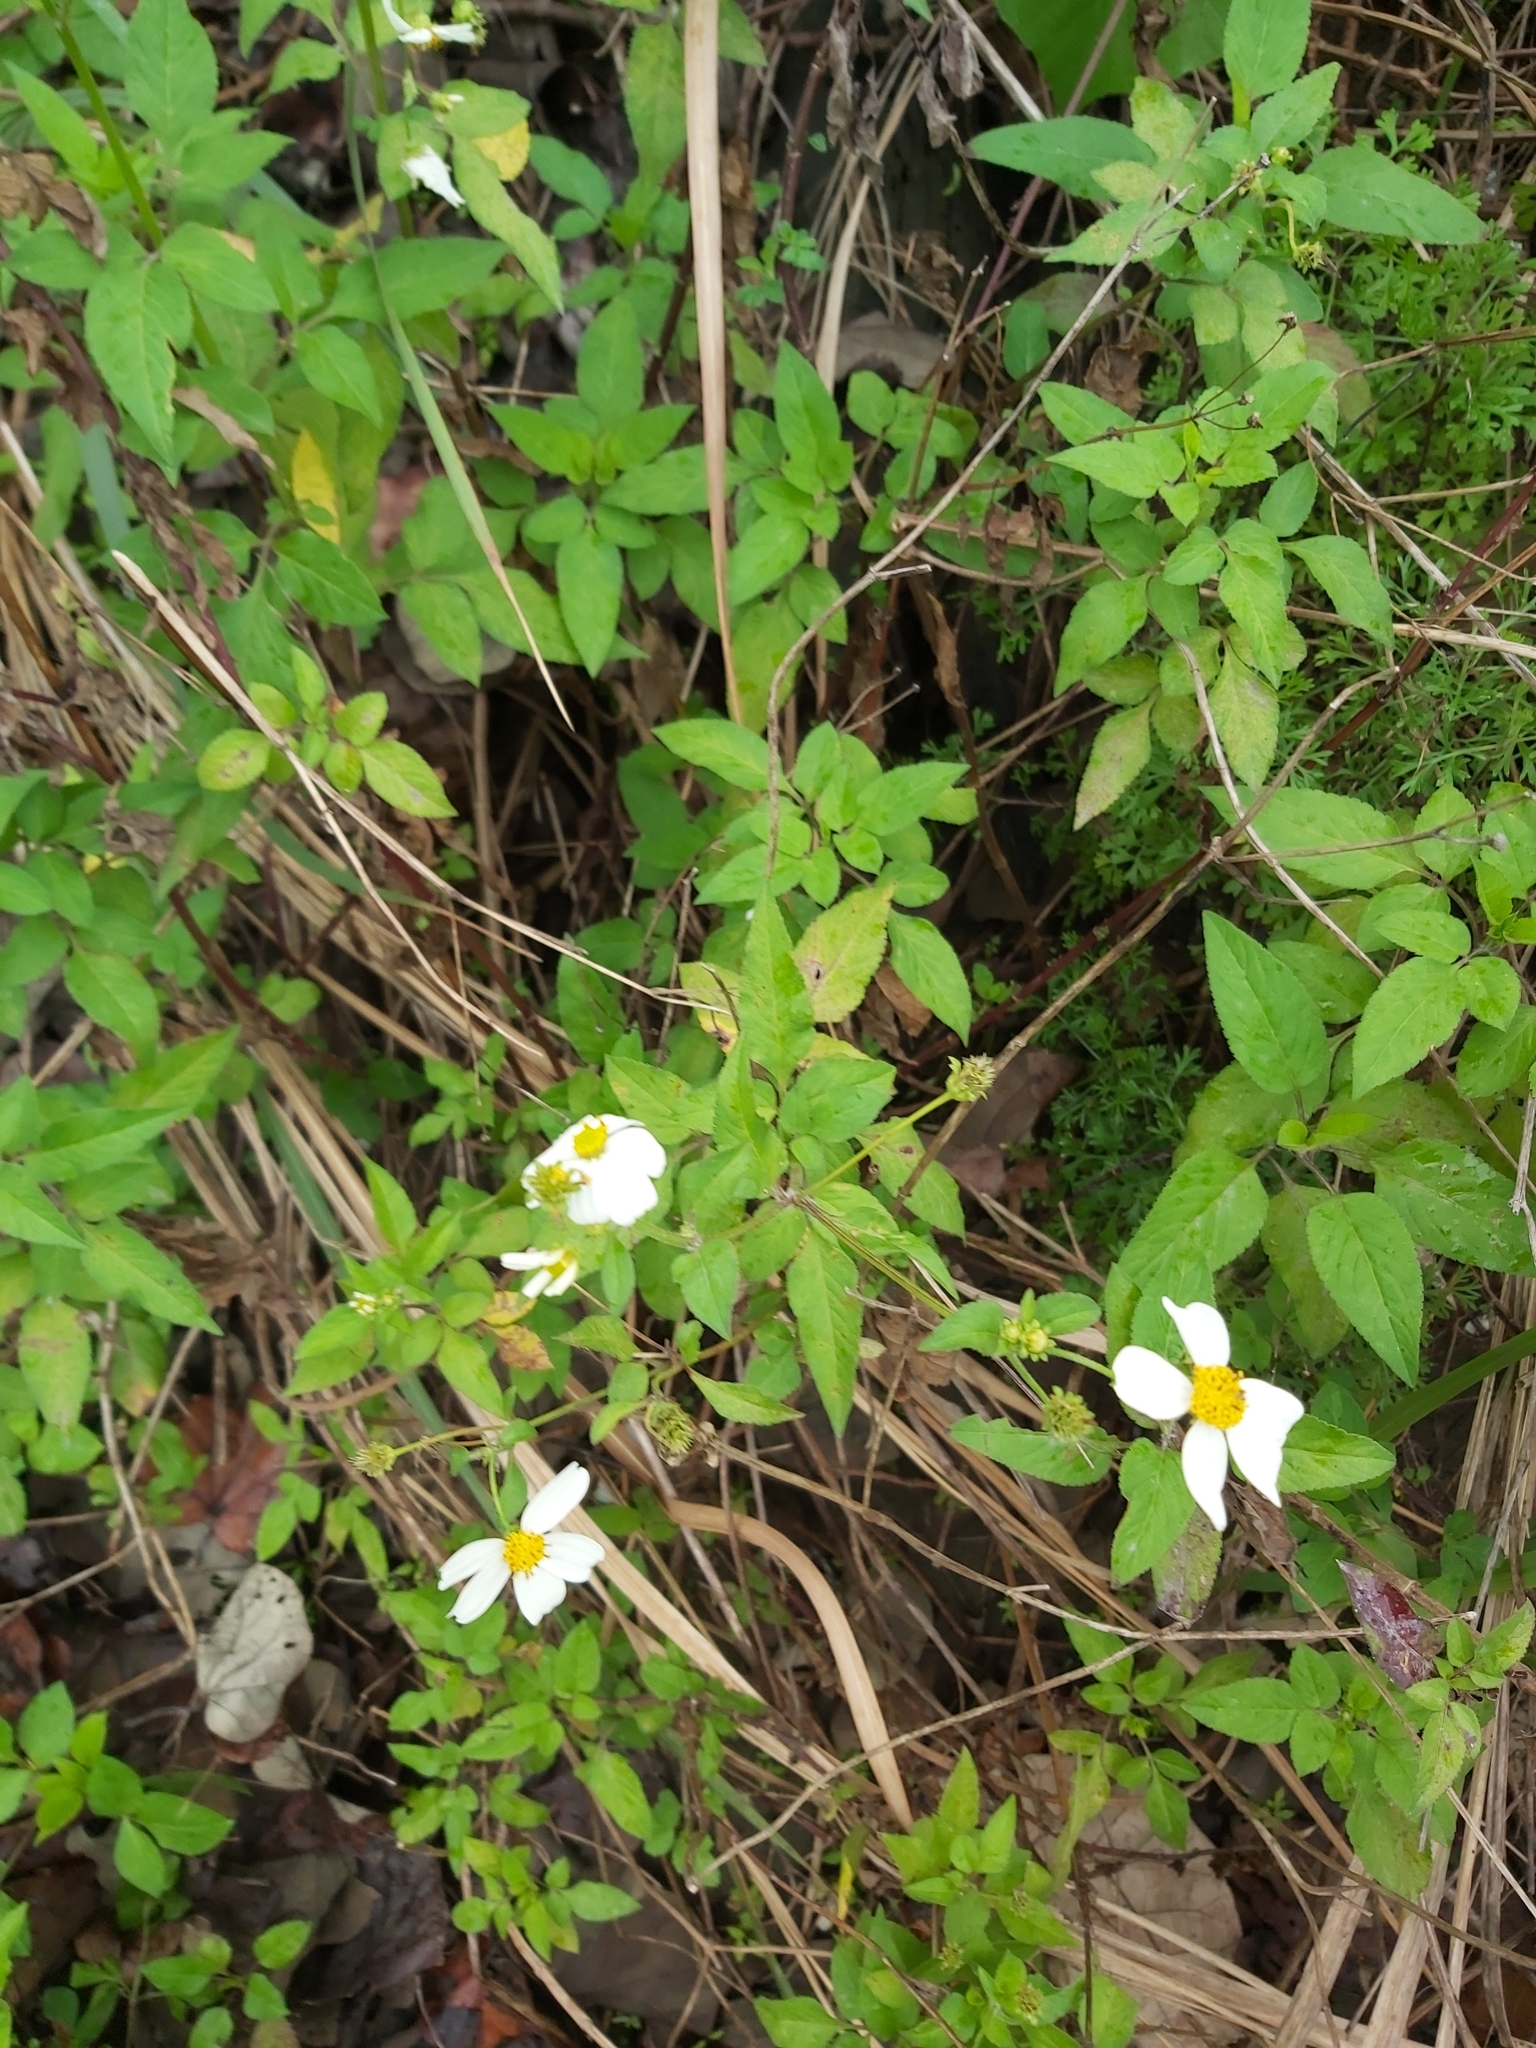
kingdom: Plantae
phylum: Tracheophyta
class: Magnoliopsida
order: Asterales
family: Asteraceae
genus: Bidens
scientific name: Bidens alba
